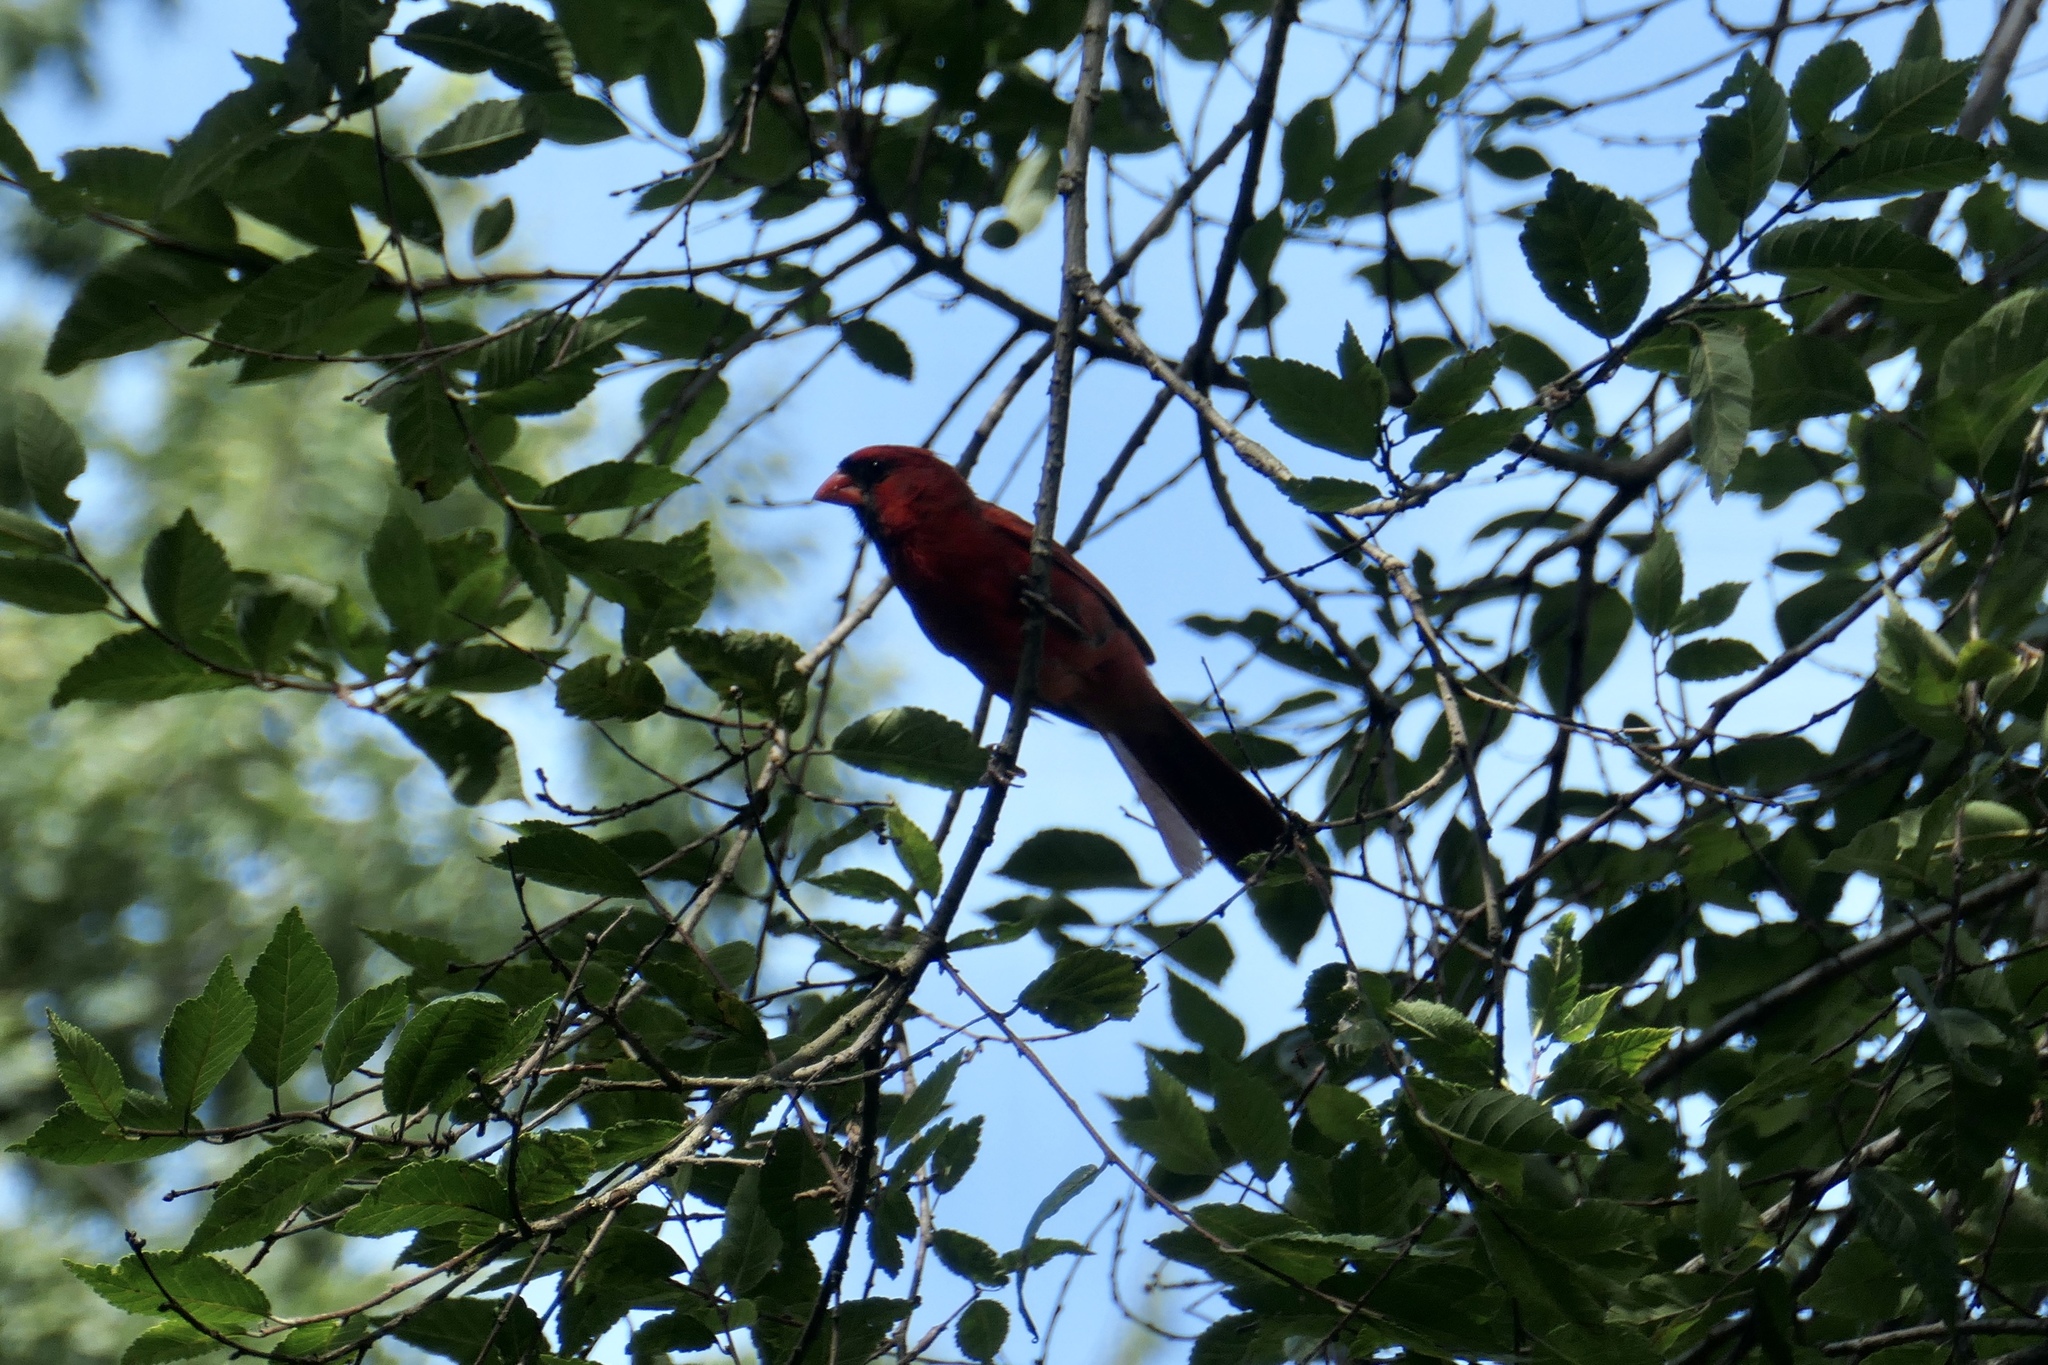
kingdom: Animalia
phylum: Chordata
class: Aves
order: Passeriformes
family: Cardinalidae
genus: Cardinalis
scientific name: Cardinalis cardinalis
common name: Northern cardinal
